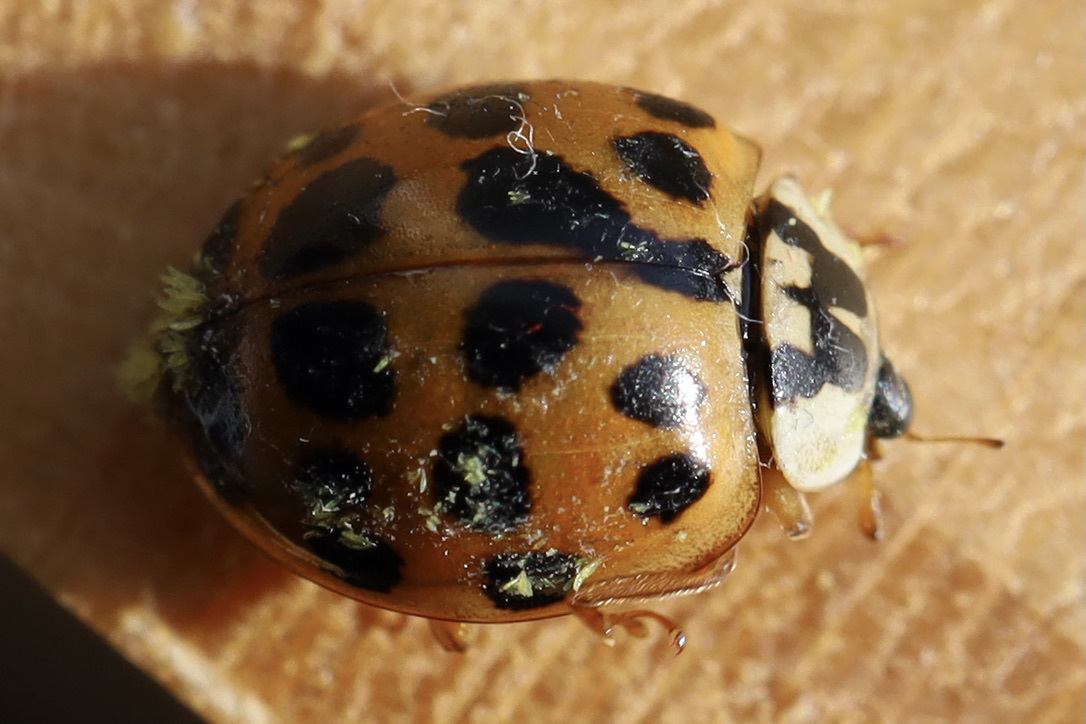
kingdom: Animalia
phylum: Arthropoda
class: Insecta
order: Coleoptera
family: Coccinellidae
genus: Harmonia
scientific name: Harmonia axyridis
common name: Harlequin ladybird
